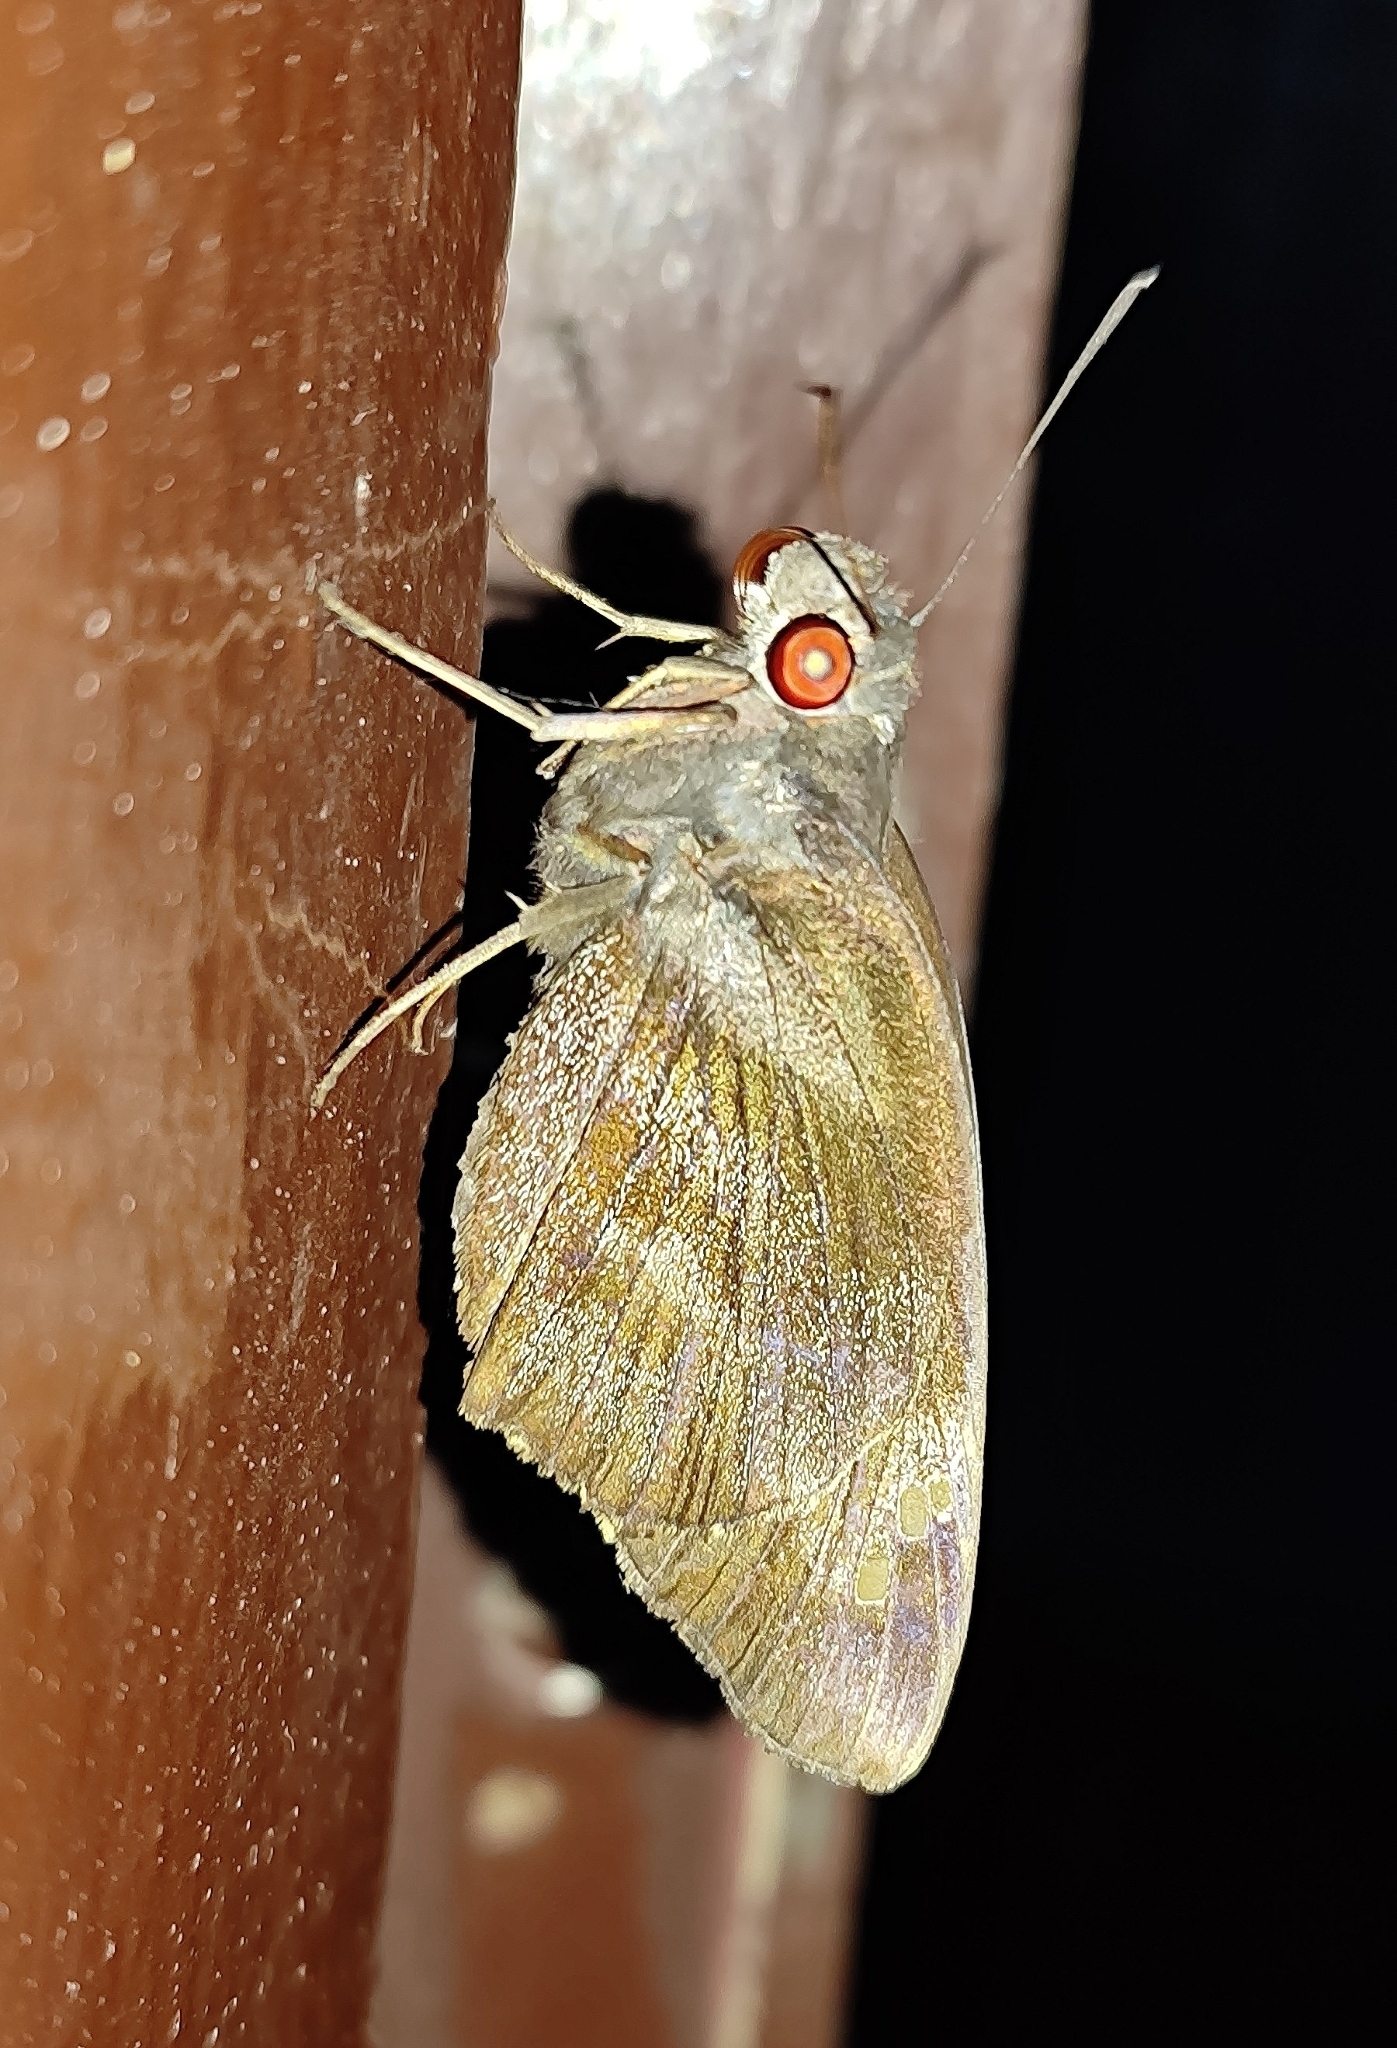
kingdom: Animalia
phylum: Arthropoda
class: Insecta
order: Lepidoptera
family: Hesperiidae
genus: Gangara
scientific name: Gangara thyrsis
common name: Giant redeye
